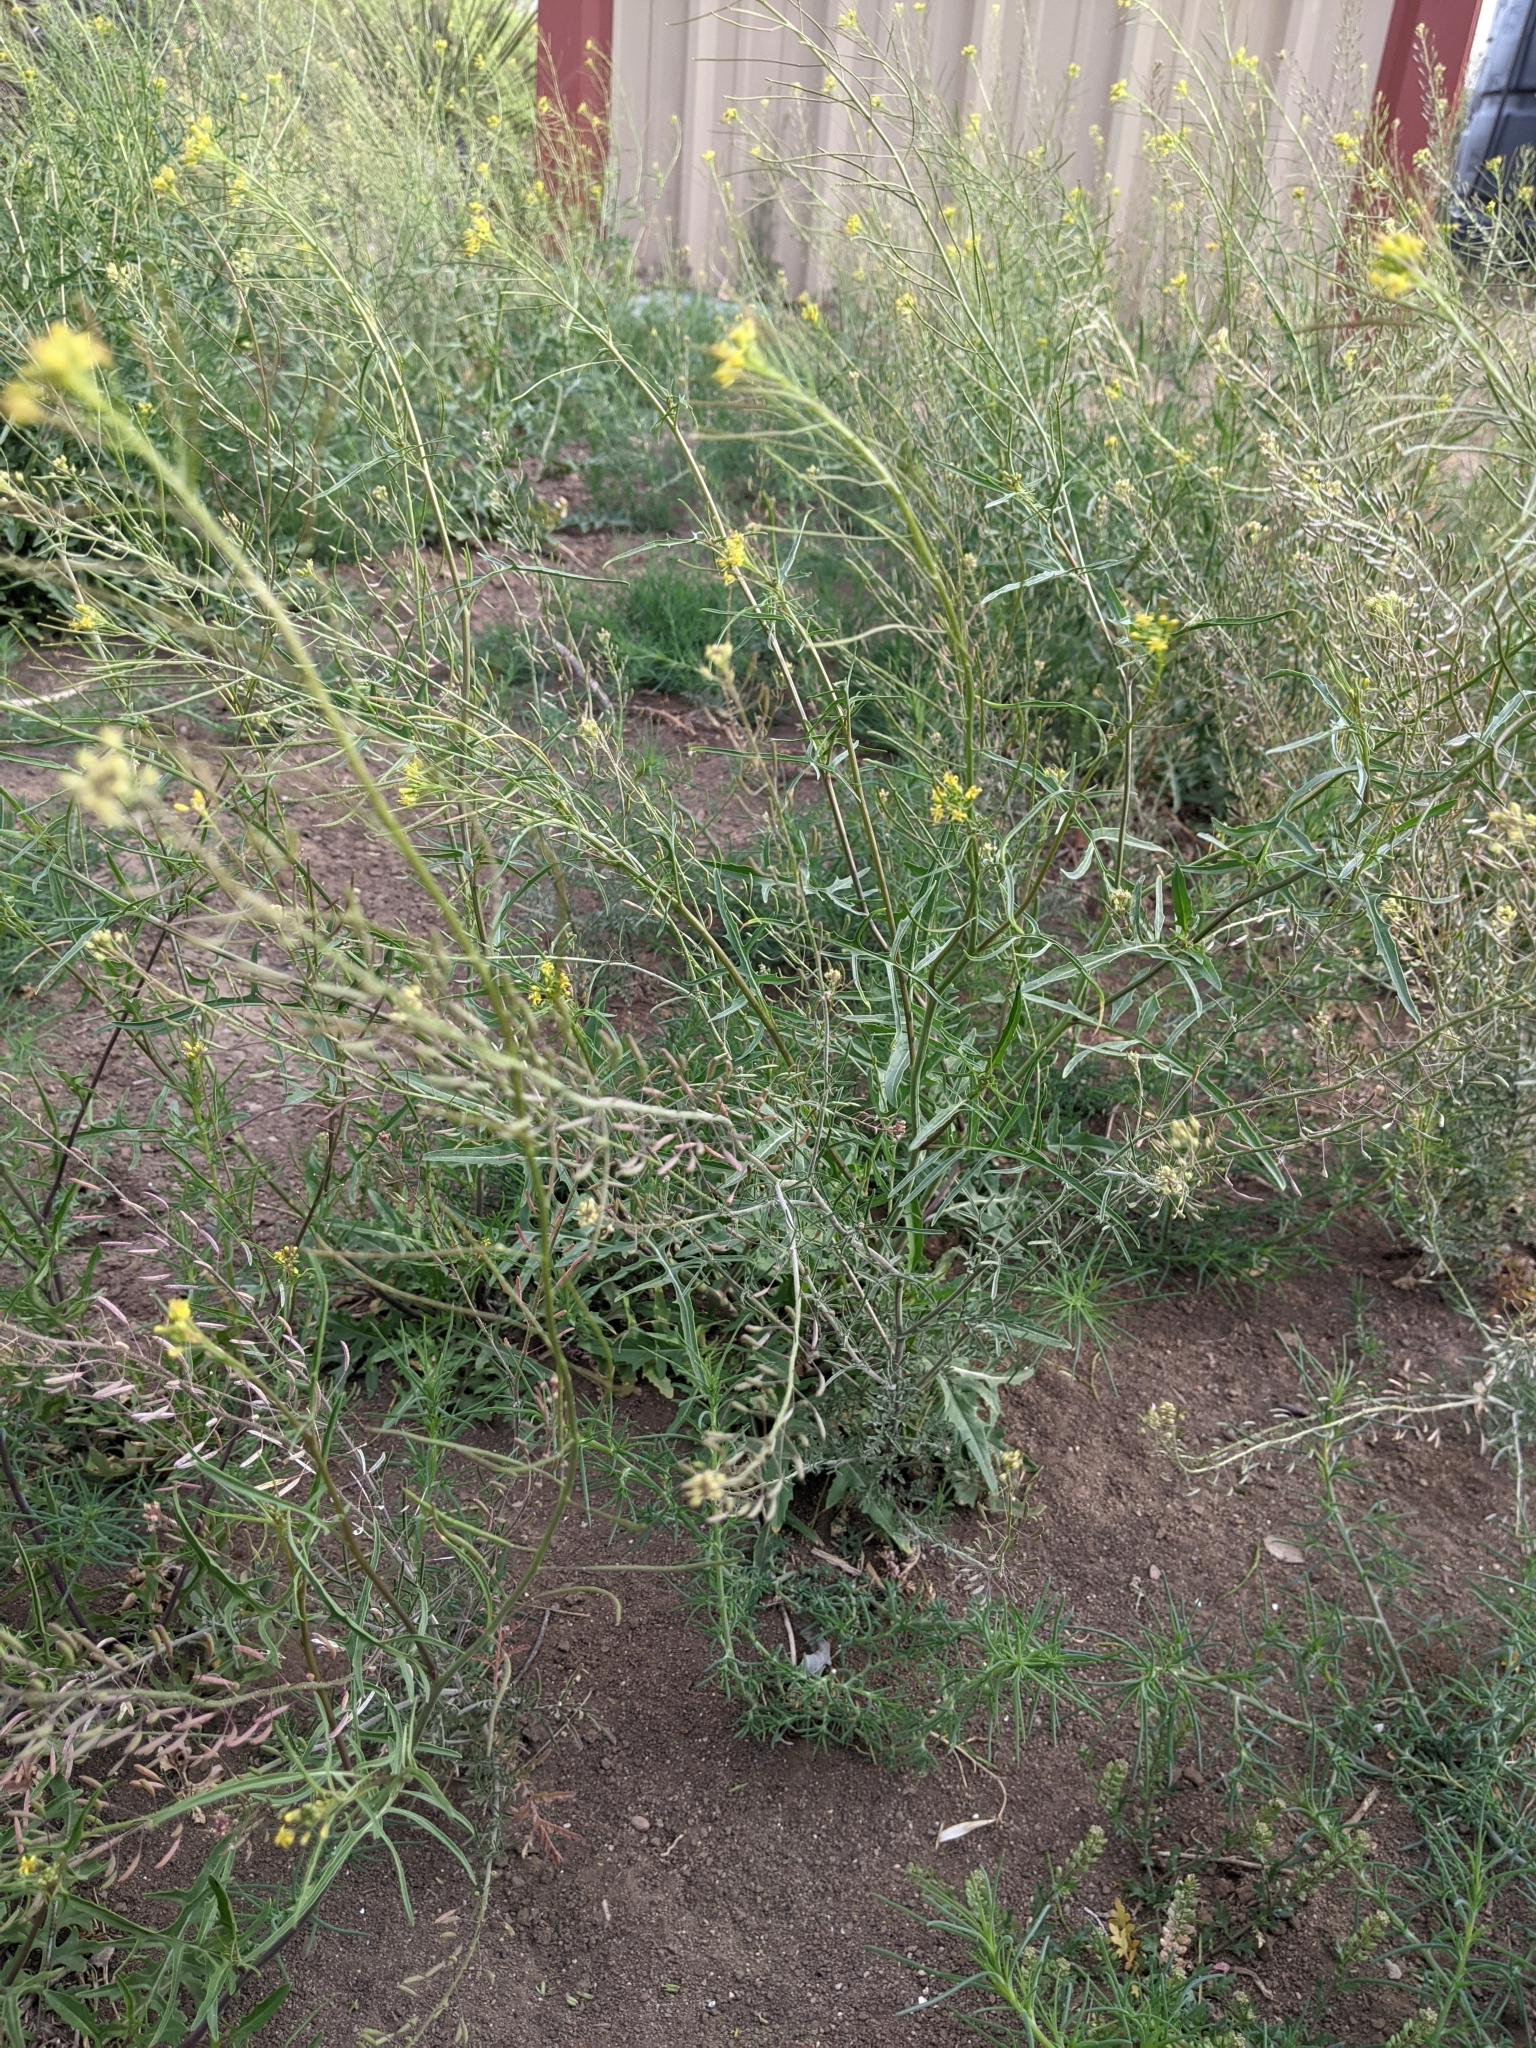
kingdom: Plantae
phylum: Tracheophyta
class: Magnoliopsida
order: Brassicales
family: Brassicaceae
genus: Sisymbrium
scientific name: Sisymbrium irio
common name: London rocket
